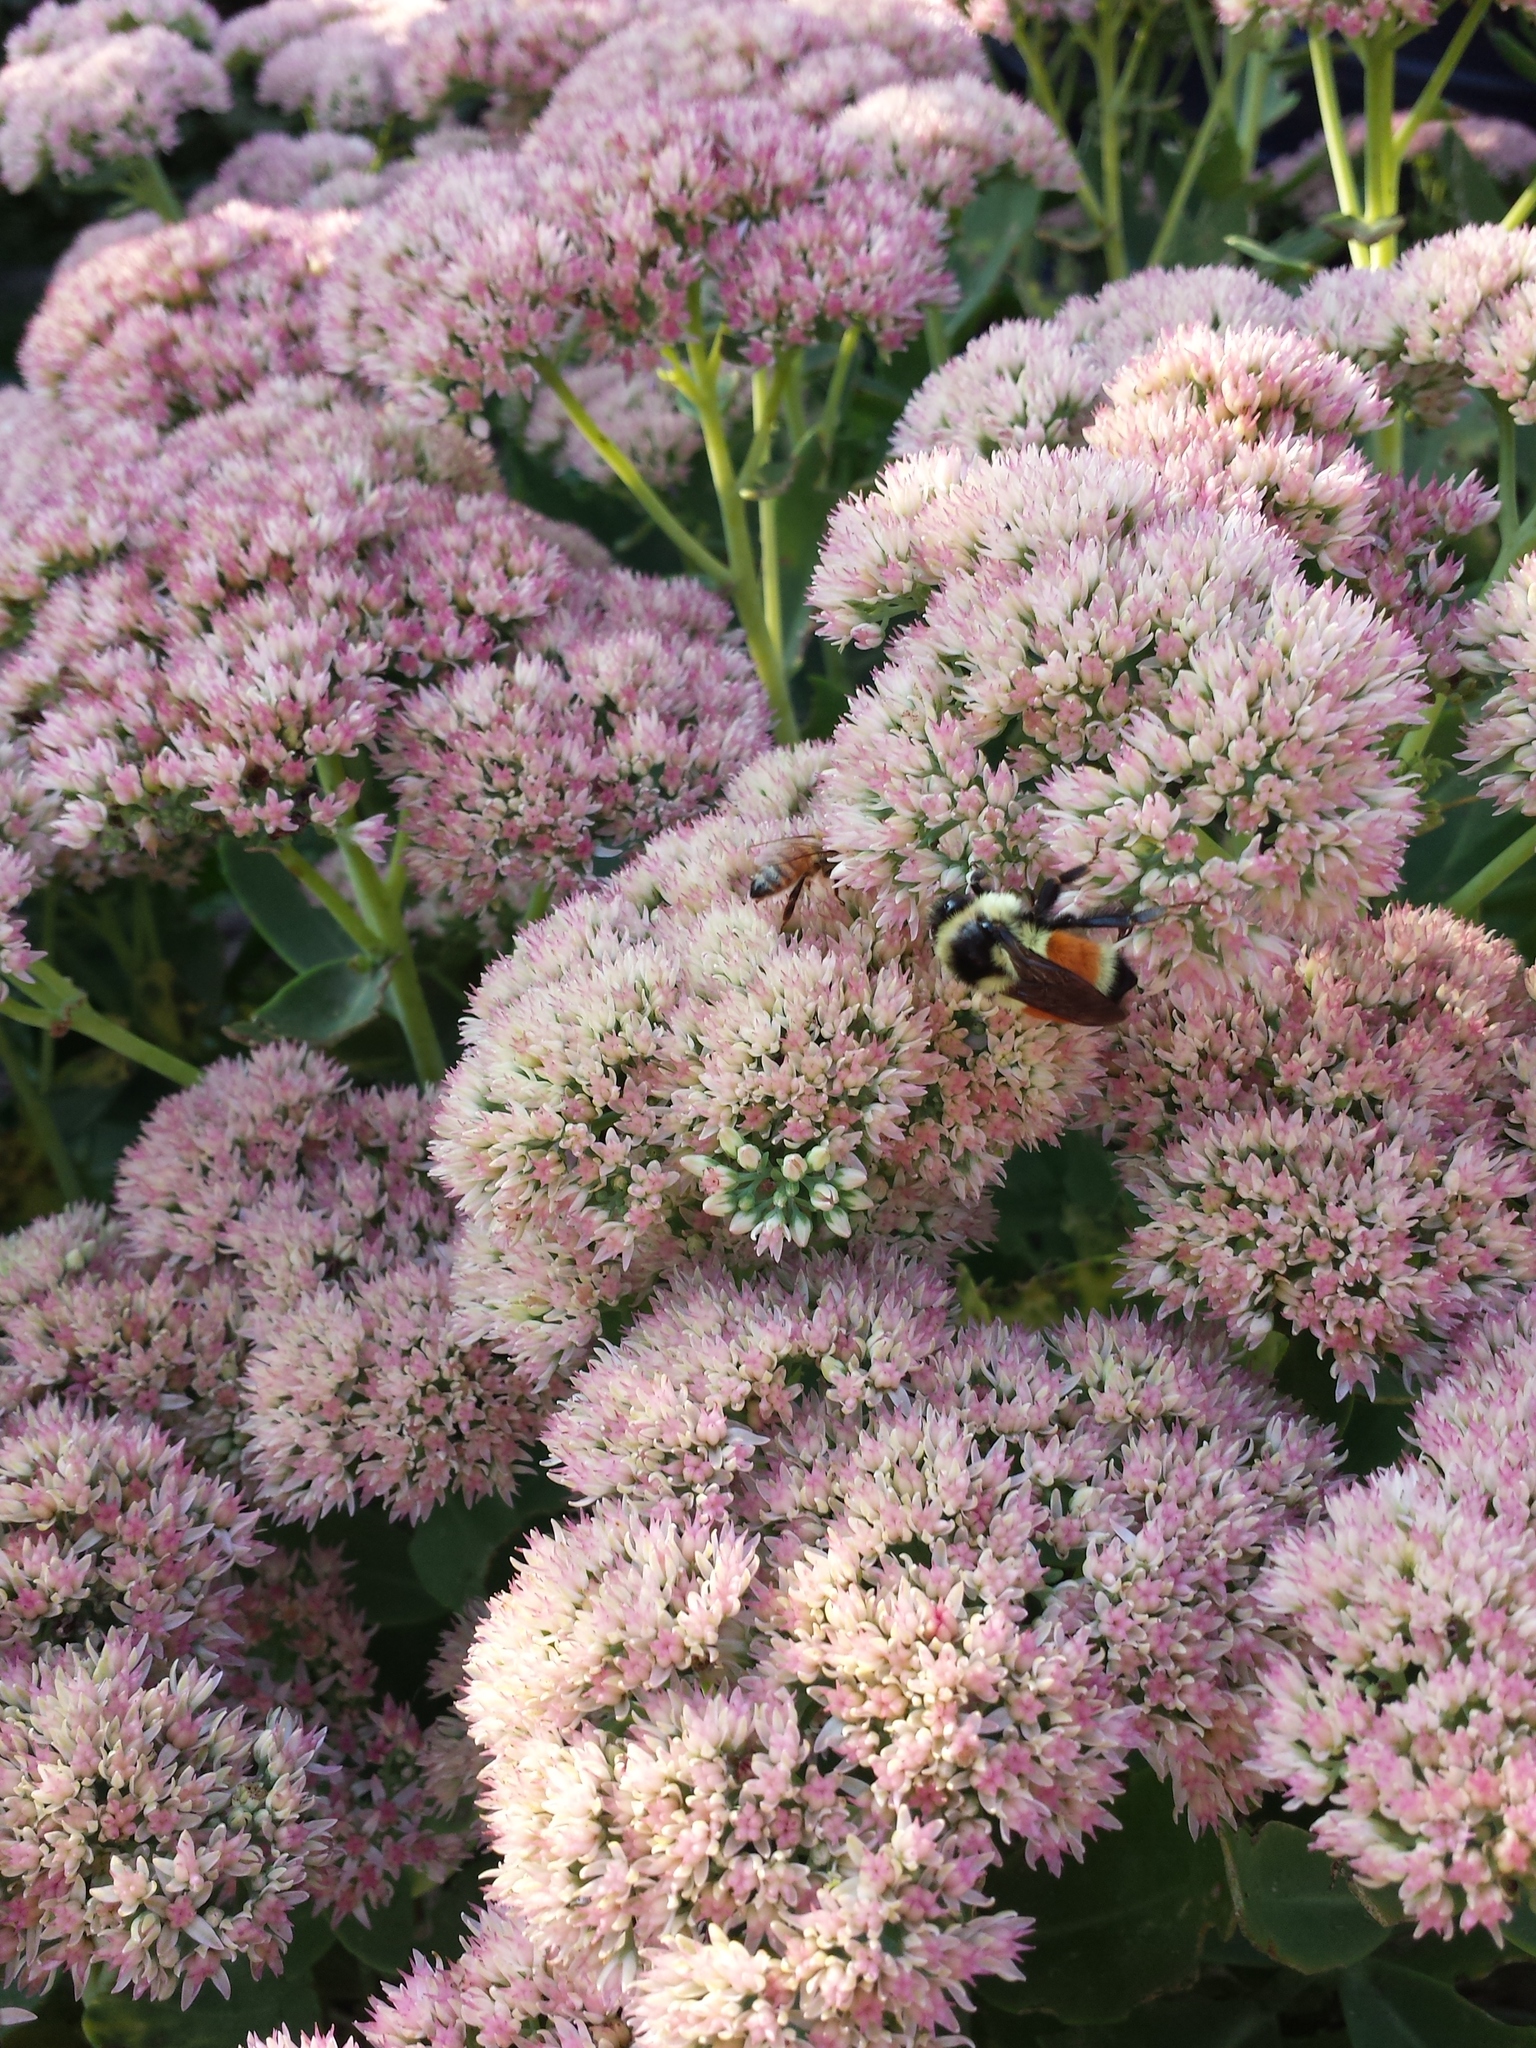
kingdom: Animalia
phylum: Arthropoda
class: Insecta
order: Hymenoptera
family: Apidae
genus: Bombus
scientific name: Bombus ternarius
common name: Tri-colored bumble bee
